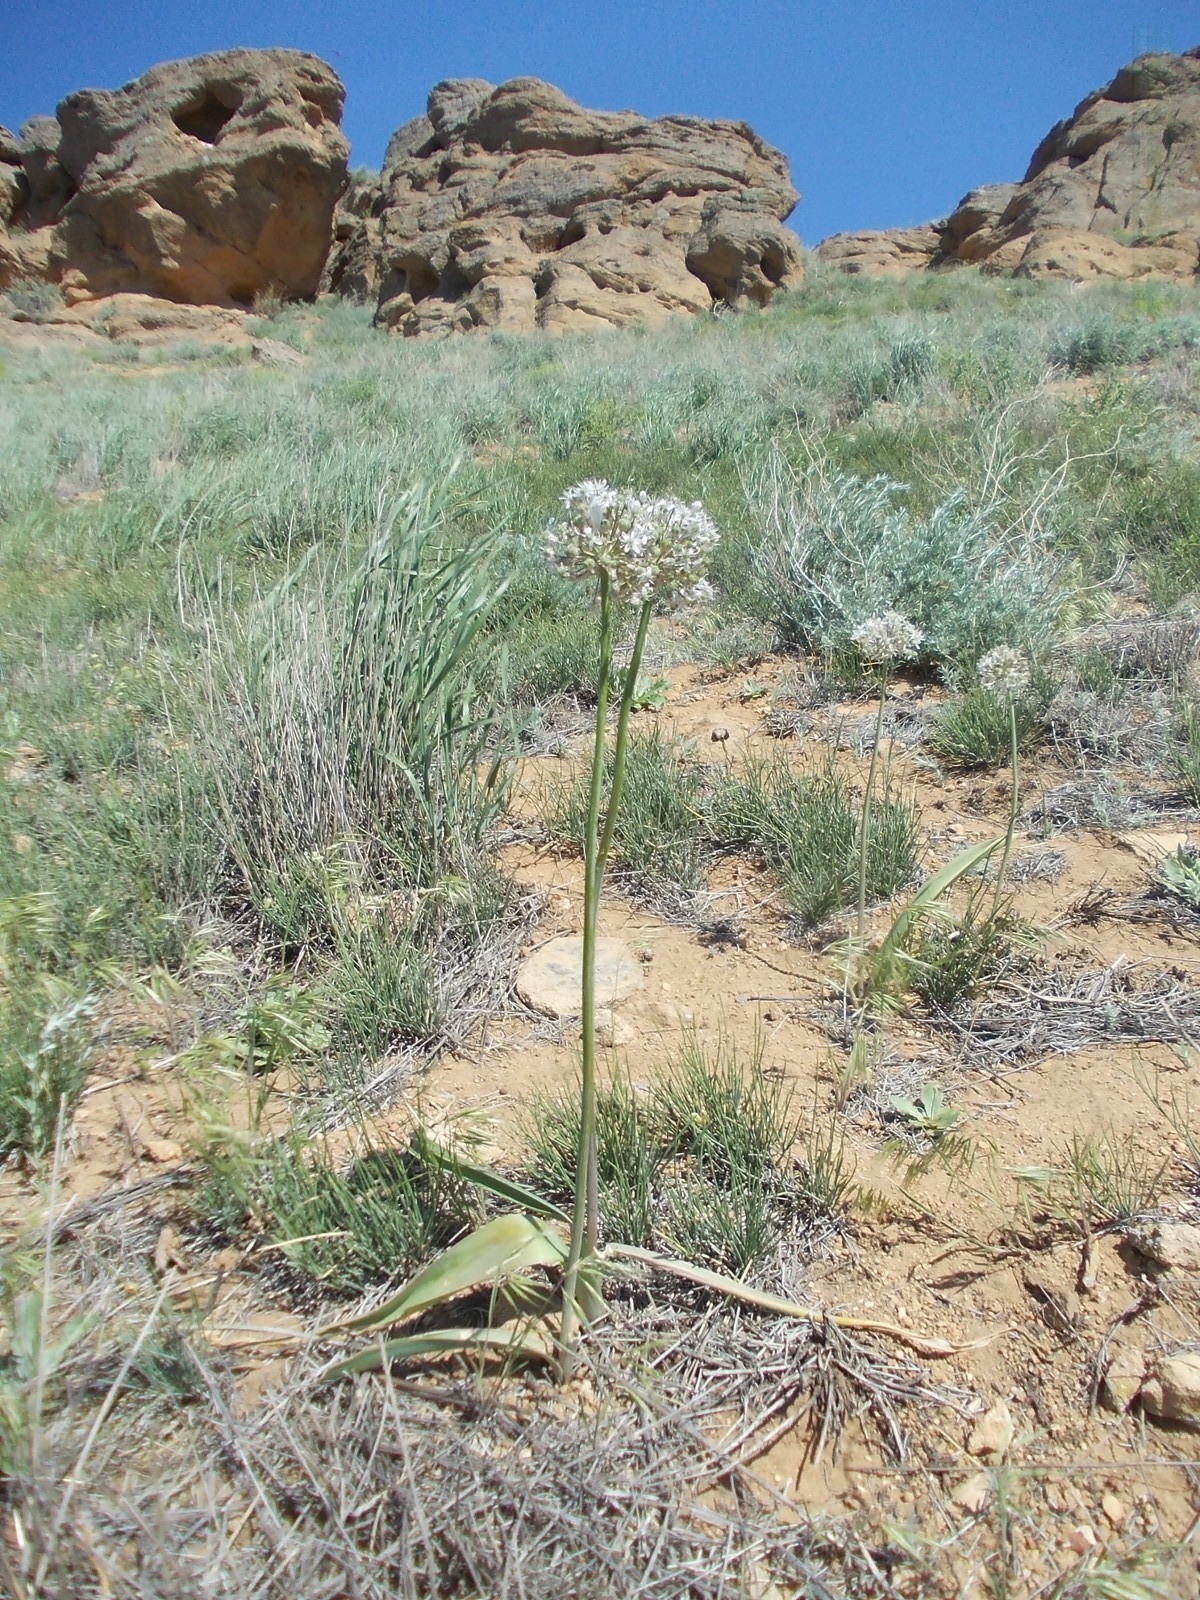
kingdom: Plantae
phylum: Tracheophyta
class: Liliopsida
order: Asparagales
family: Amaryllidaceae
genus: Allium
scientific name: Allium tulipifolium
